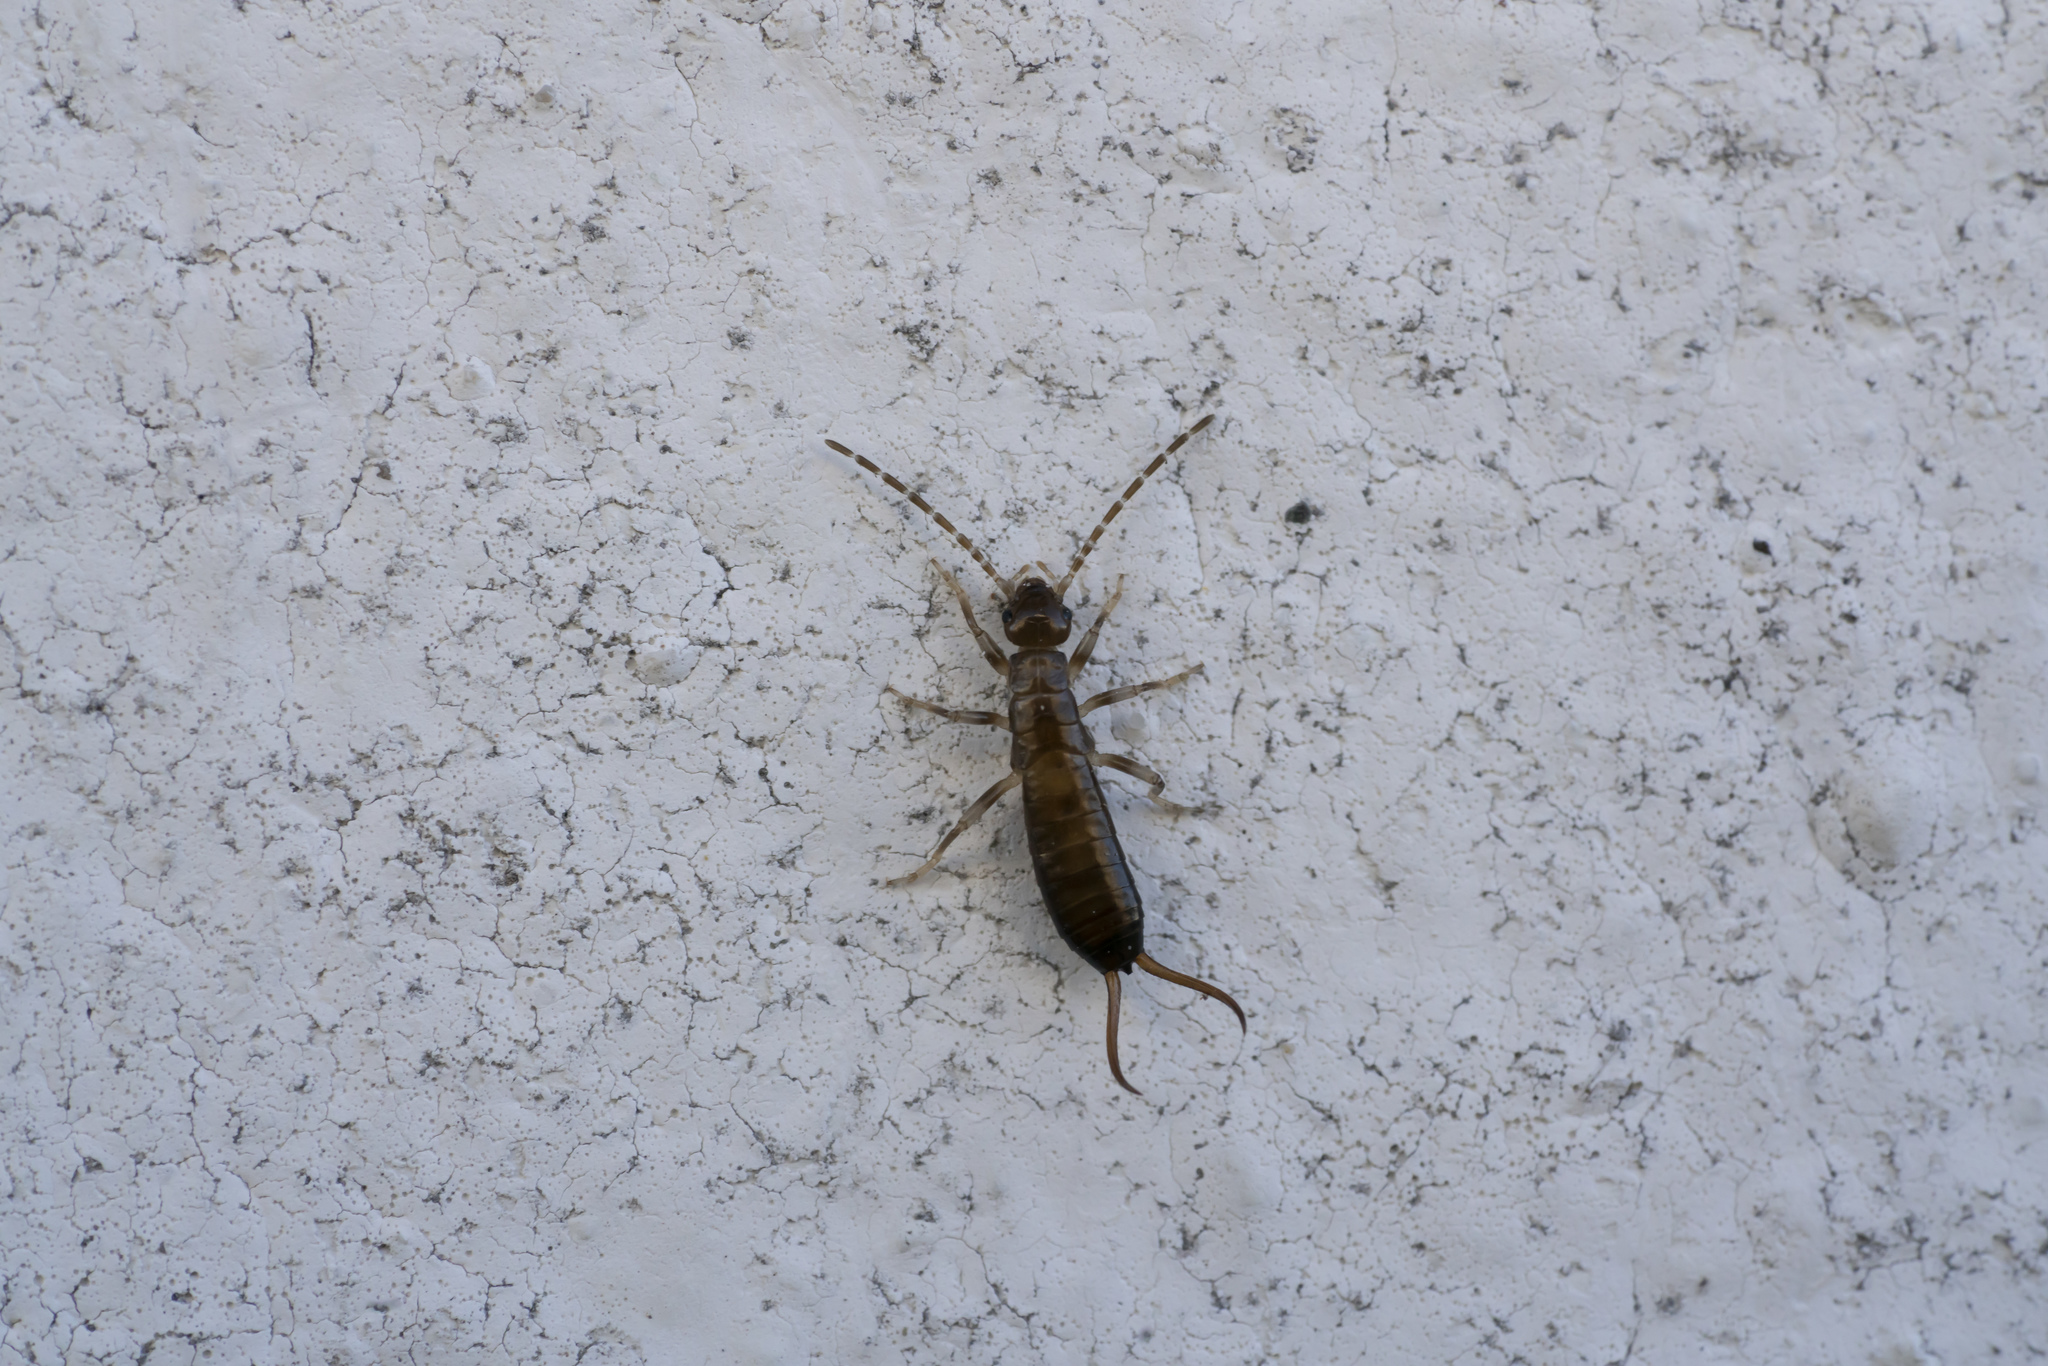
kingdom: Animalia
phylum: Arthropoda
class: Insecta
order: Dermaptera
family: Forficulidae
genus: Forficula
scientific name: Forficula smyrnensis
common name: Smyrna earwig
